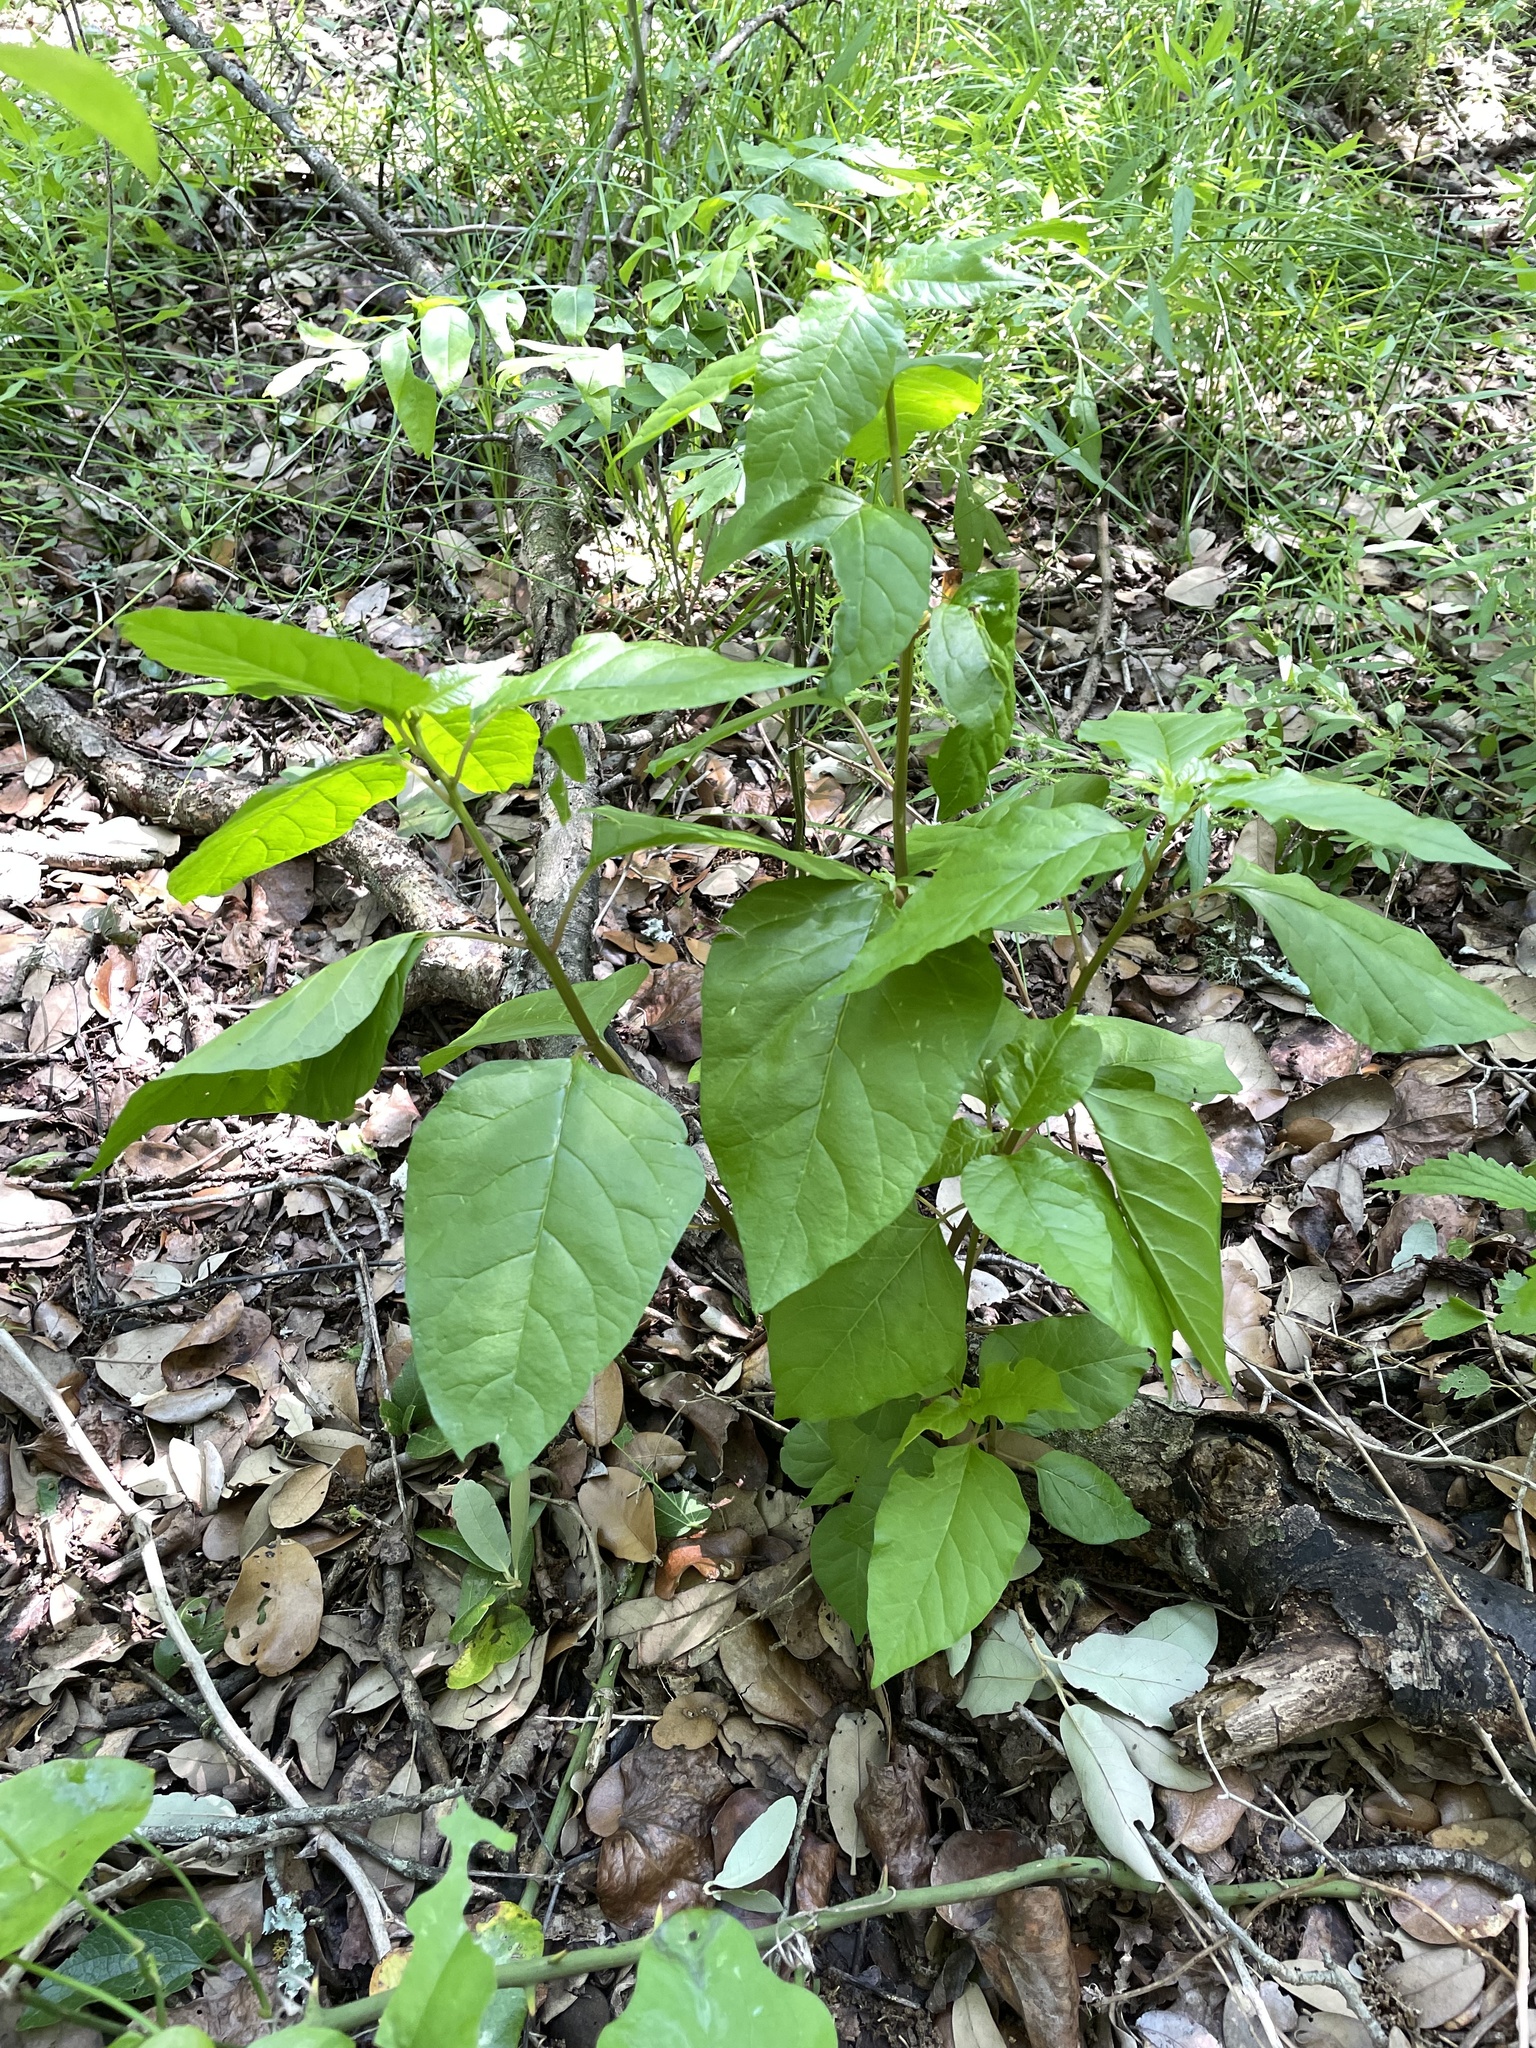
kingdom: Plantae
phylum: Tracheophyta
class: Magnoliopsida
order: Caryophyllales
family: Phytolaccaceae
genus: Rivina
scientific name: Rivina humilis
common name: Rougeplant
